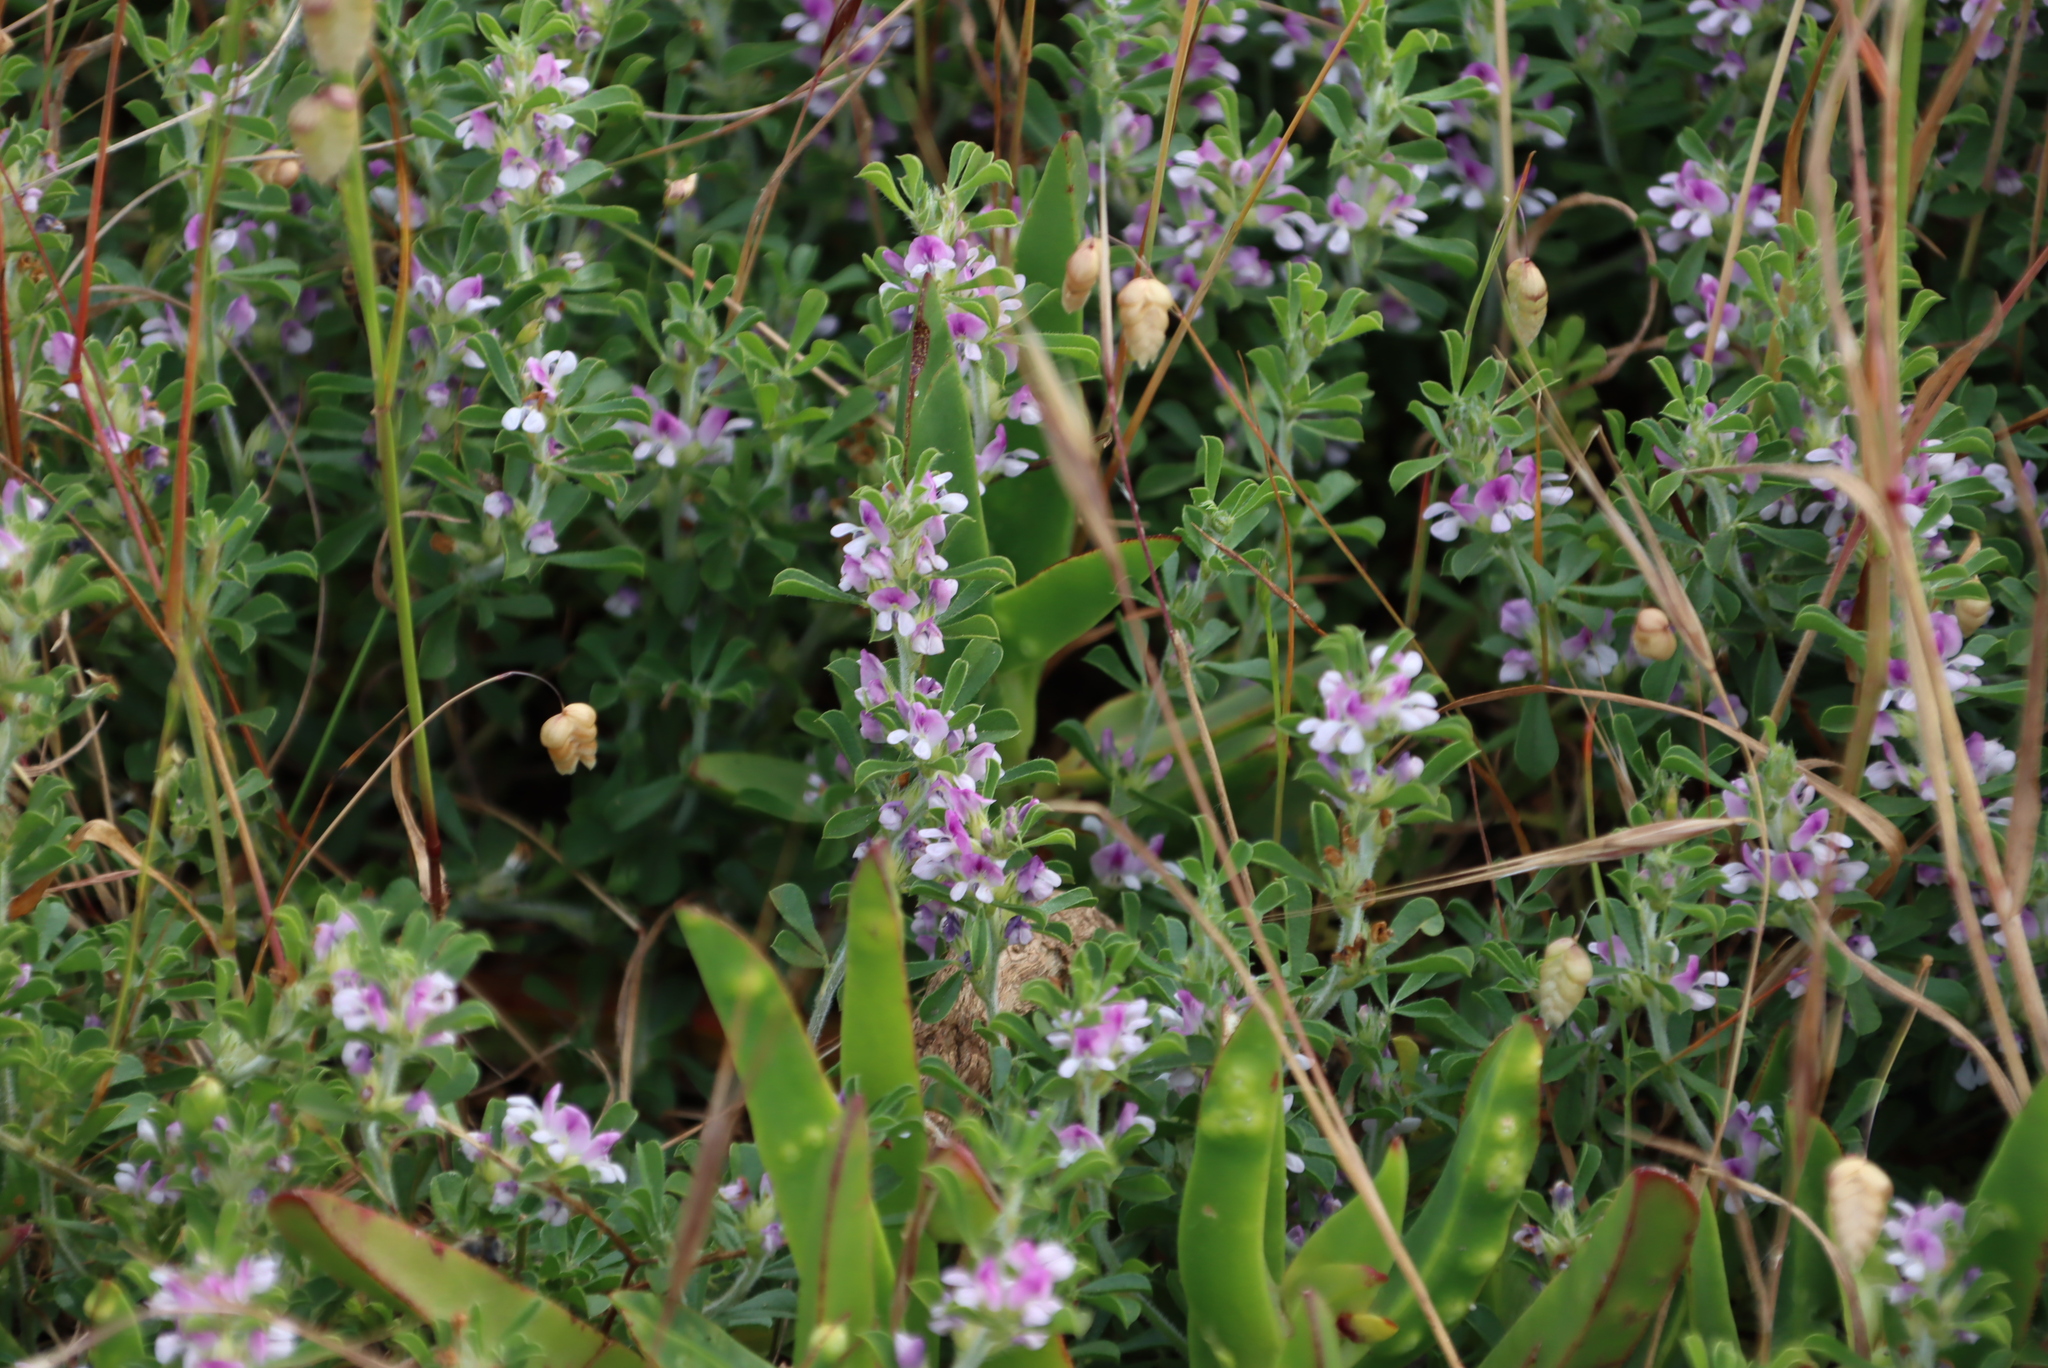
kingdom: Plantae
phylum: Tracheophyta
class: Magnoliopsida
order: Fabales
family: Fabaceae
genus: Psoralea
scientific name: Psoralea
